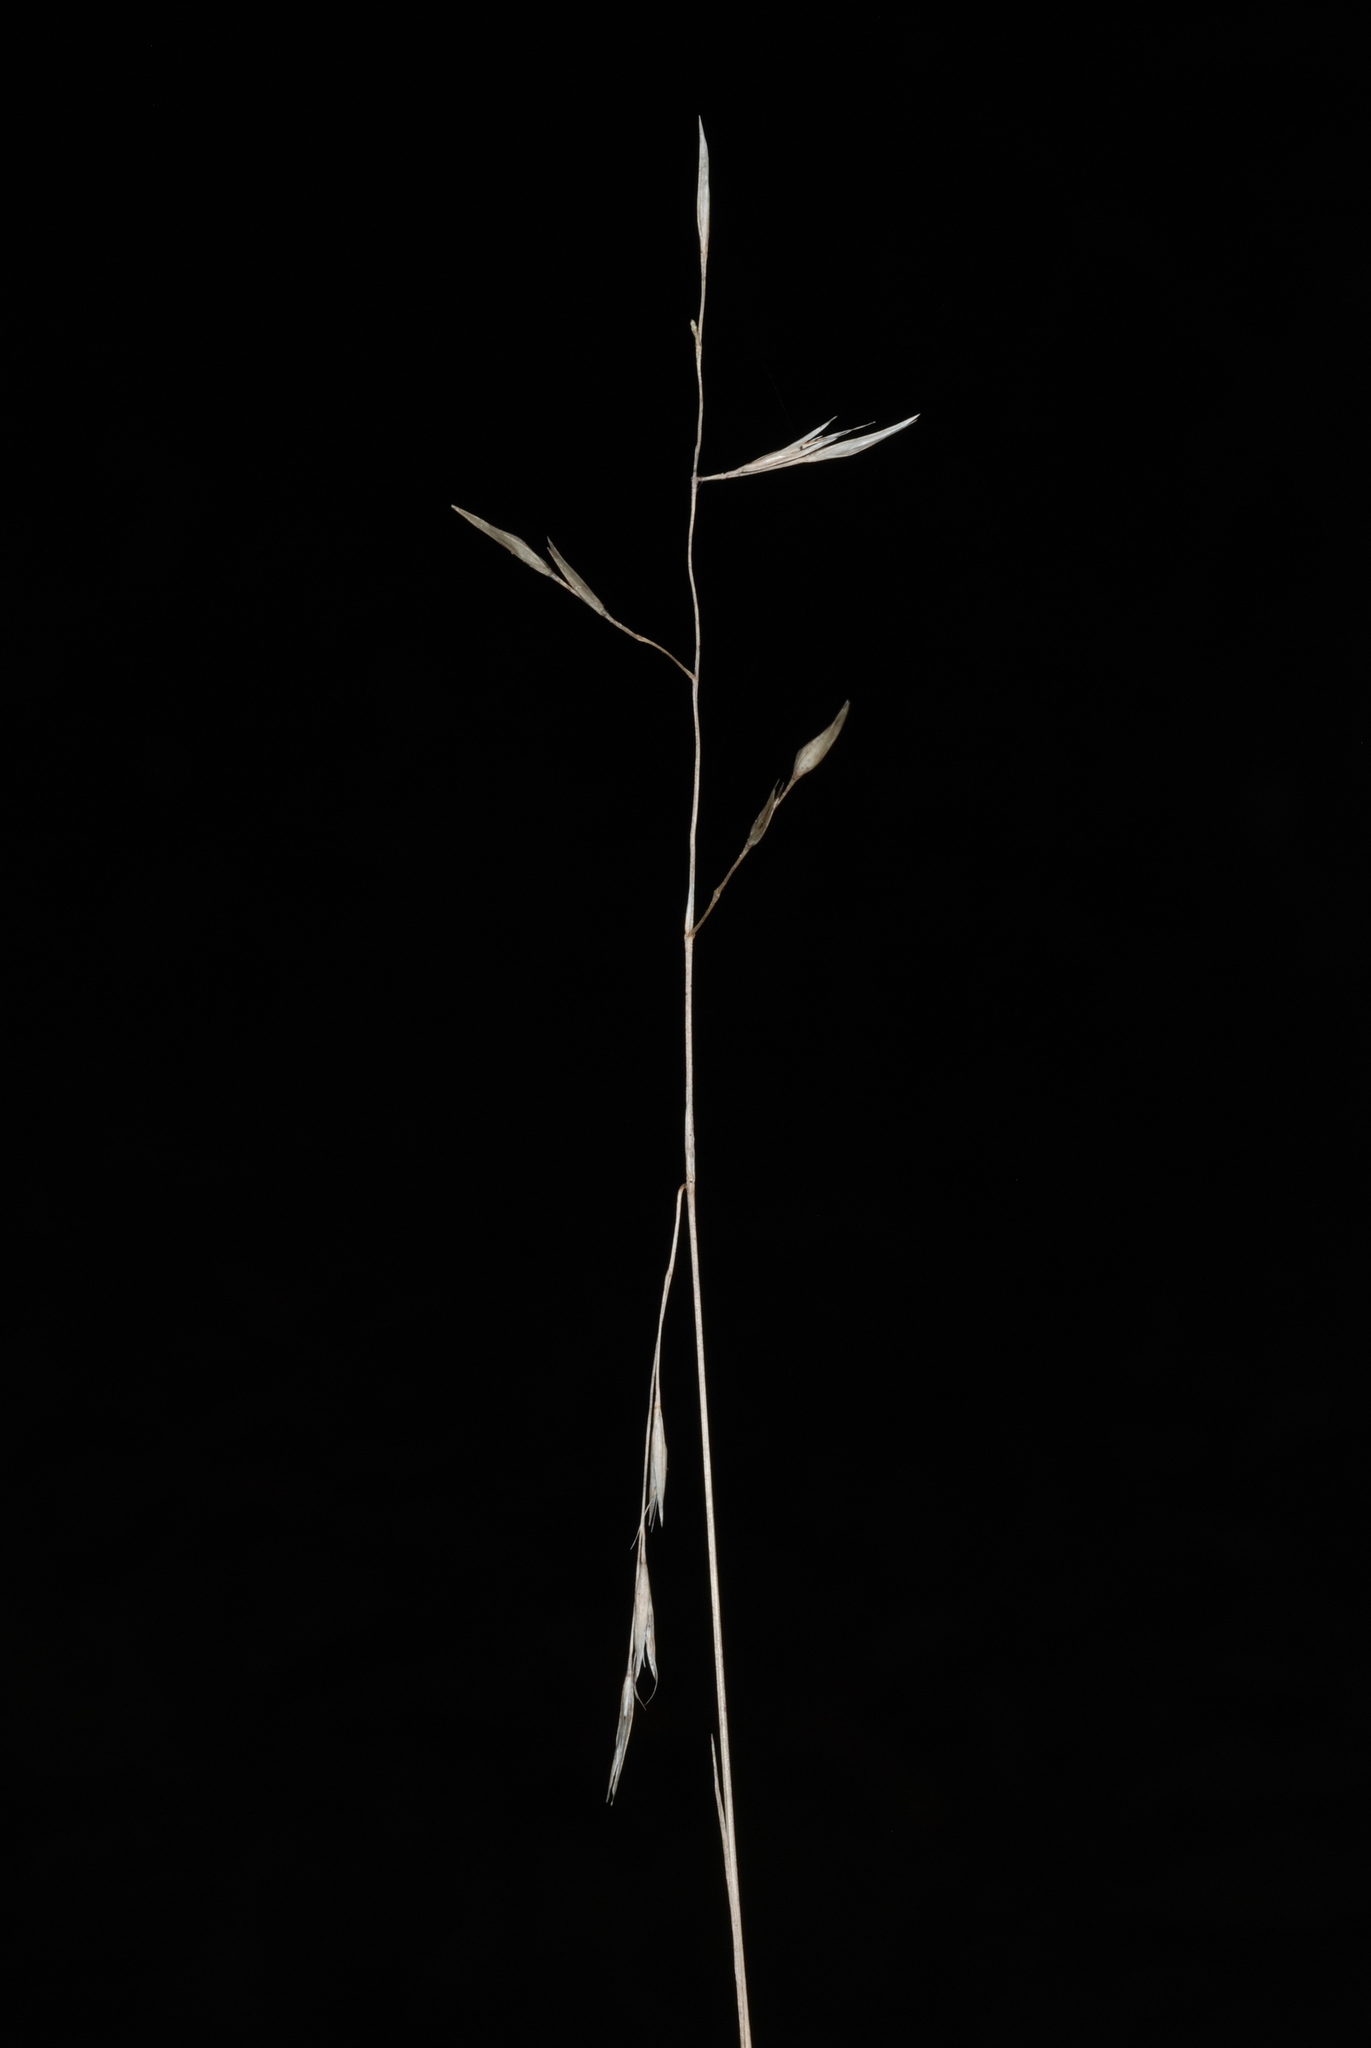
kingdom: Plantae
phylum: Tracheophyta
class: Liliopsida
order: Poales
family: Poaceae
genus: Danthonia
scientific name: Danthonia compressa
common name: Flat-stem oat grass
